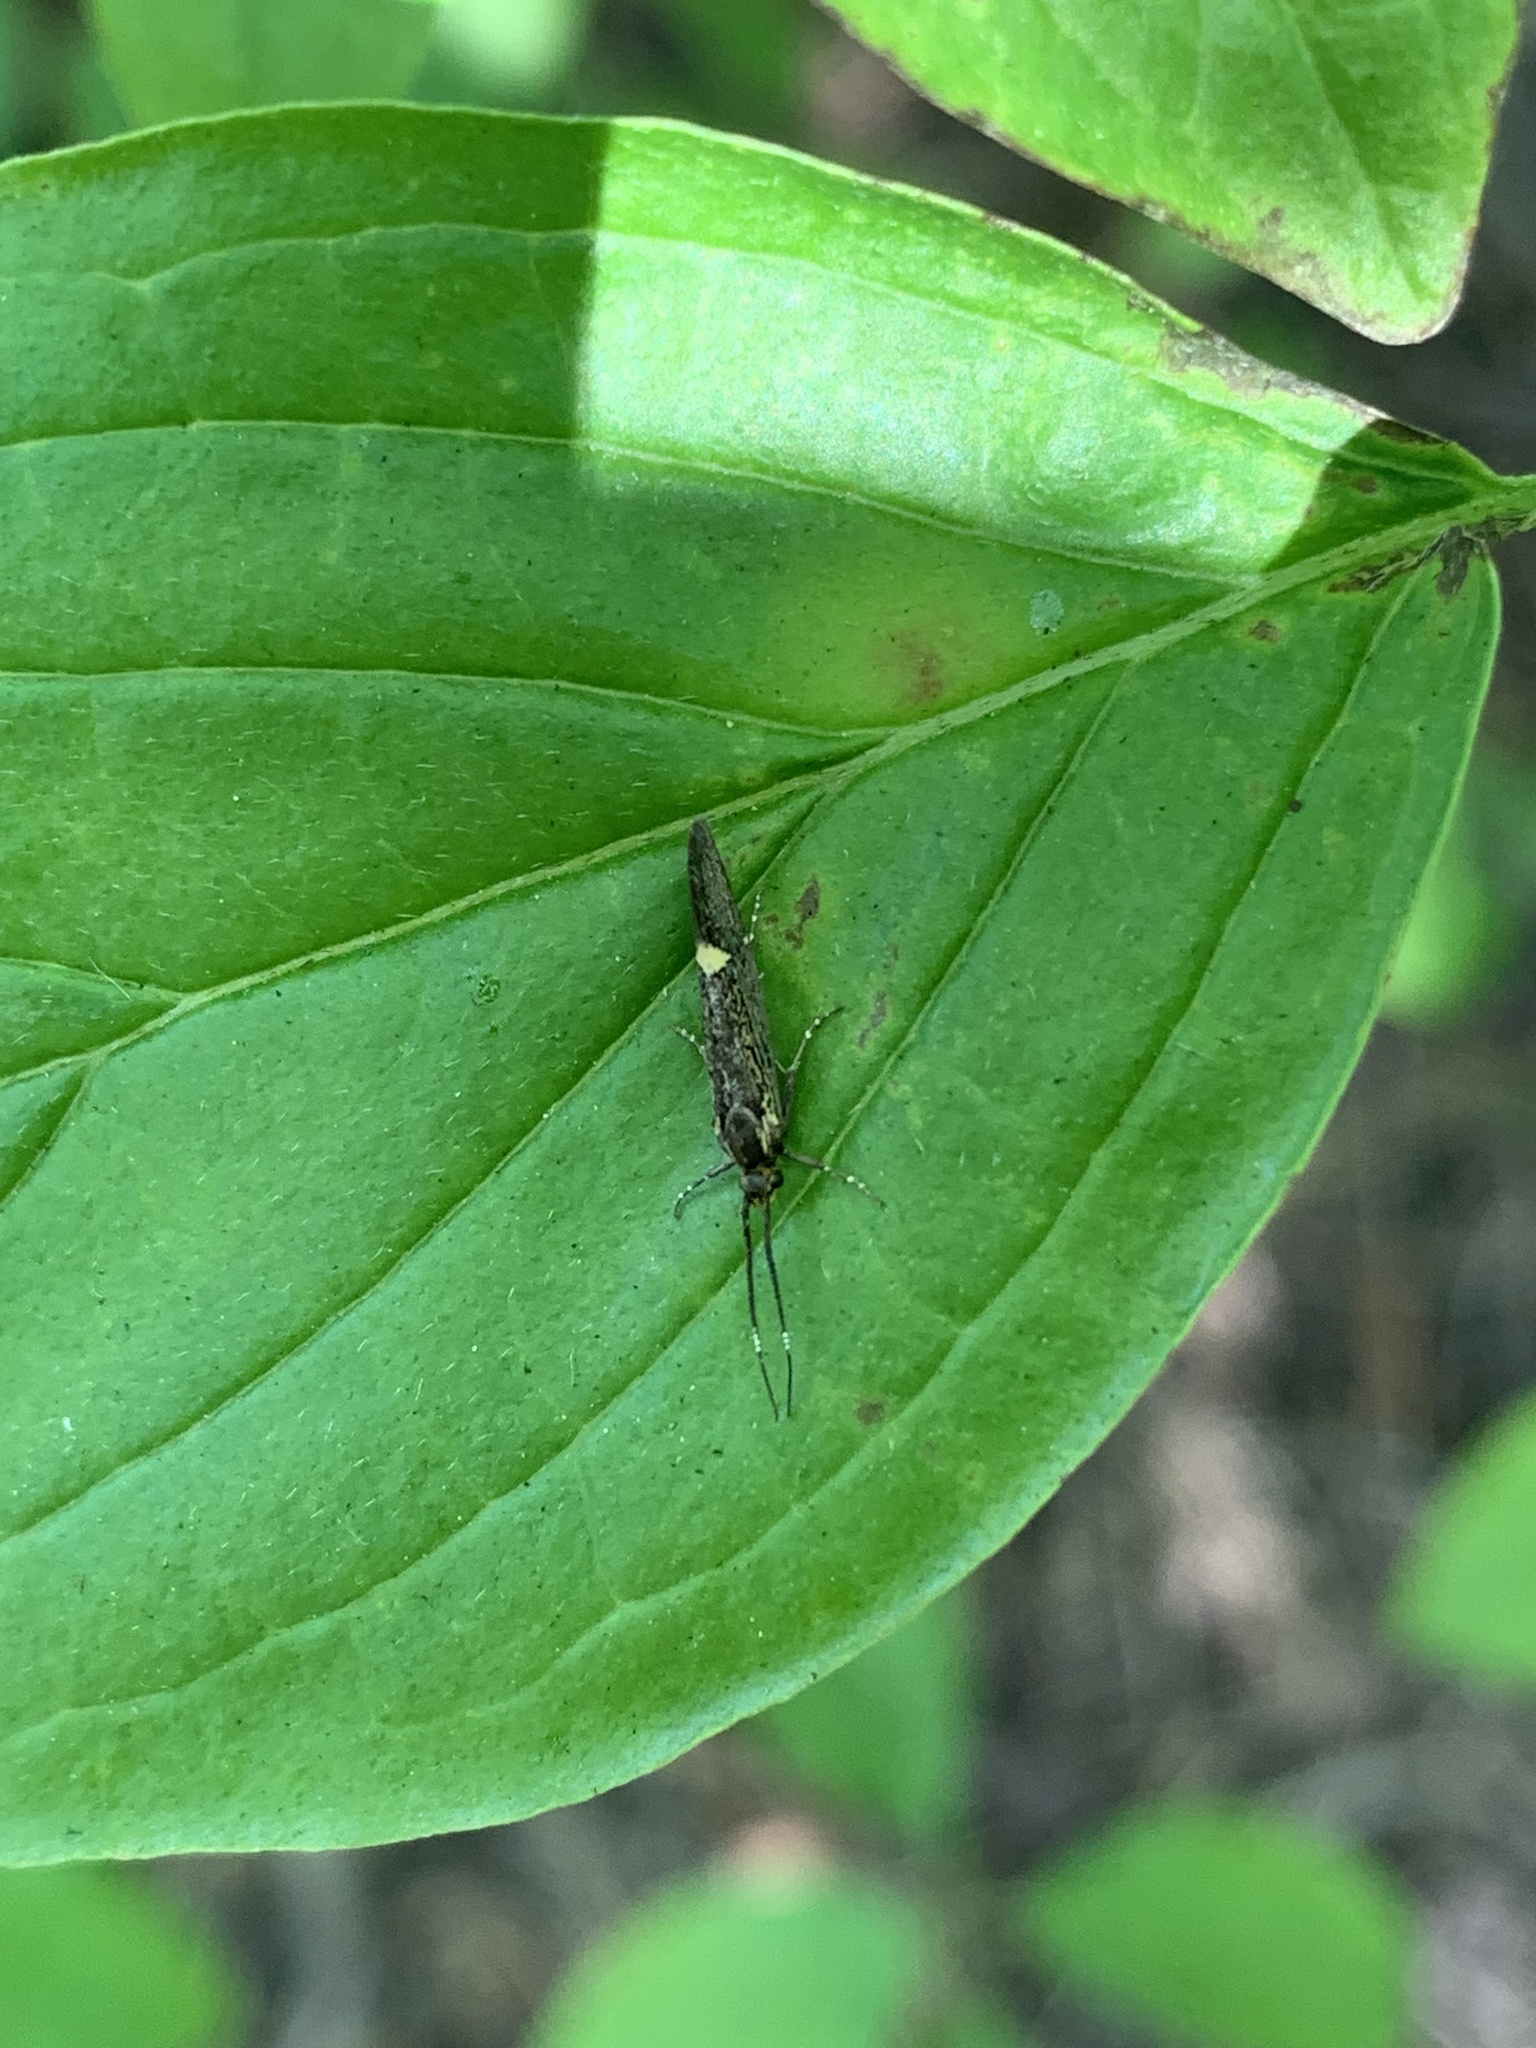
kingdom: Animalia
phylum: Arthropoda
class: Insecta
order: Lepidoptera
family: Oecophoridae
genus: Dafa
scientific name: Dafa Esperia sulphurella
